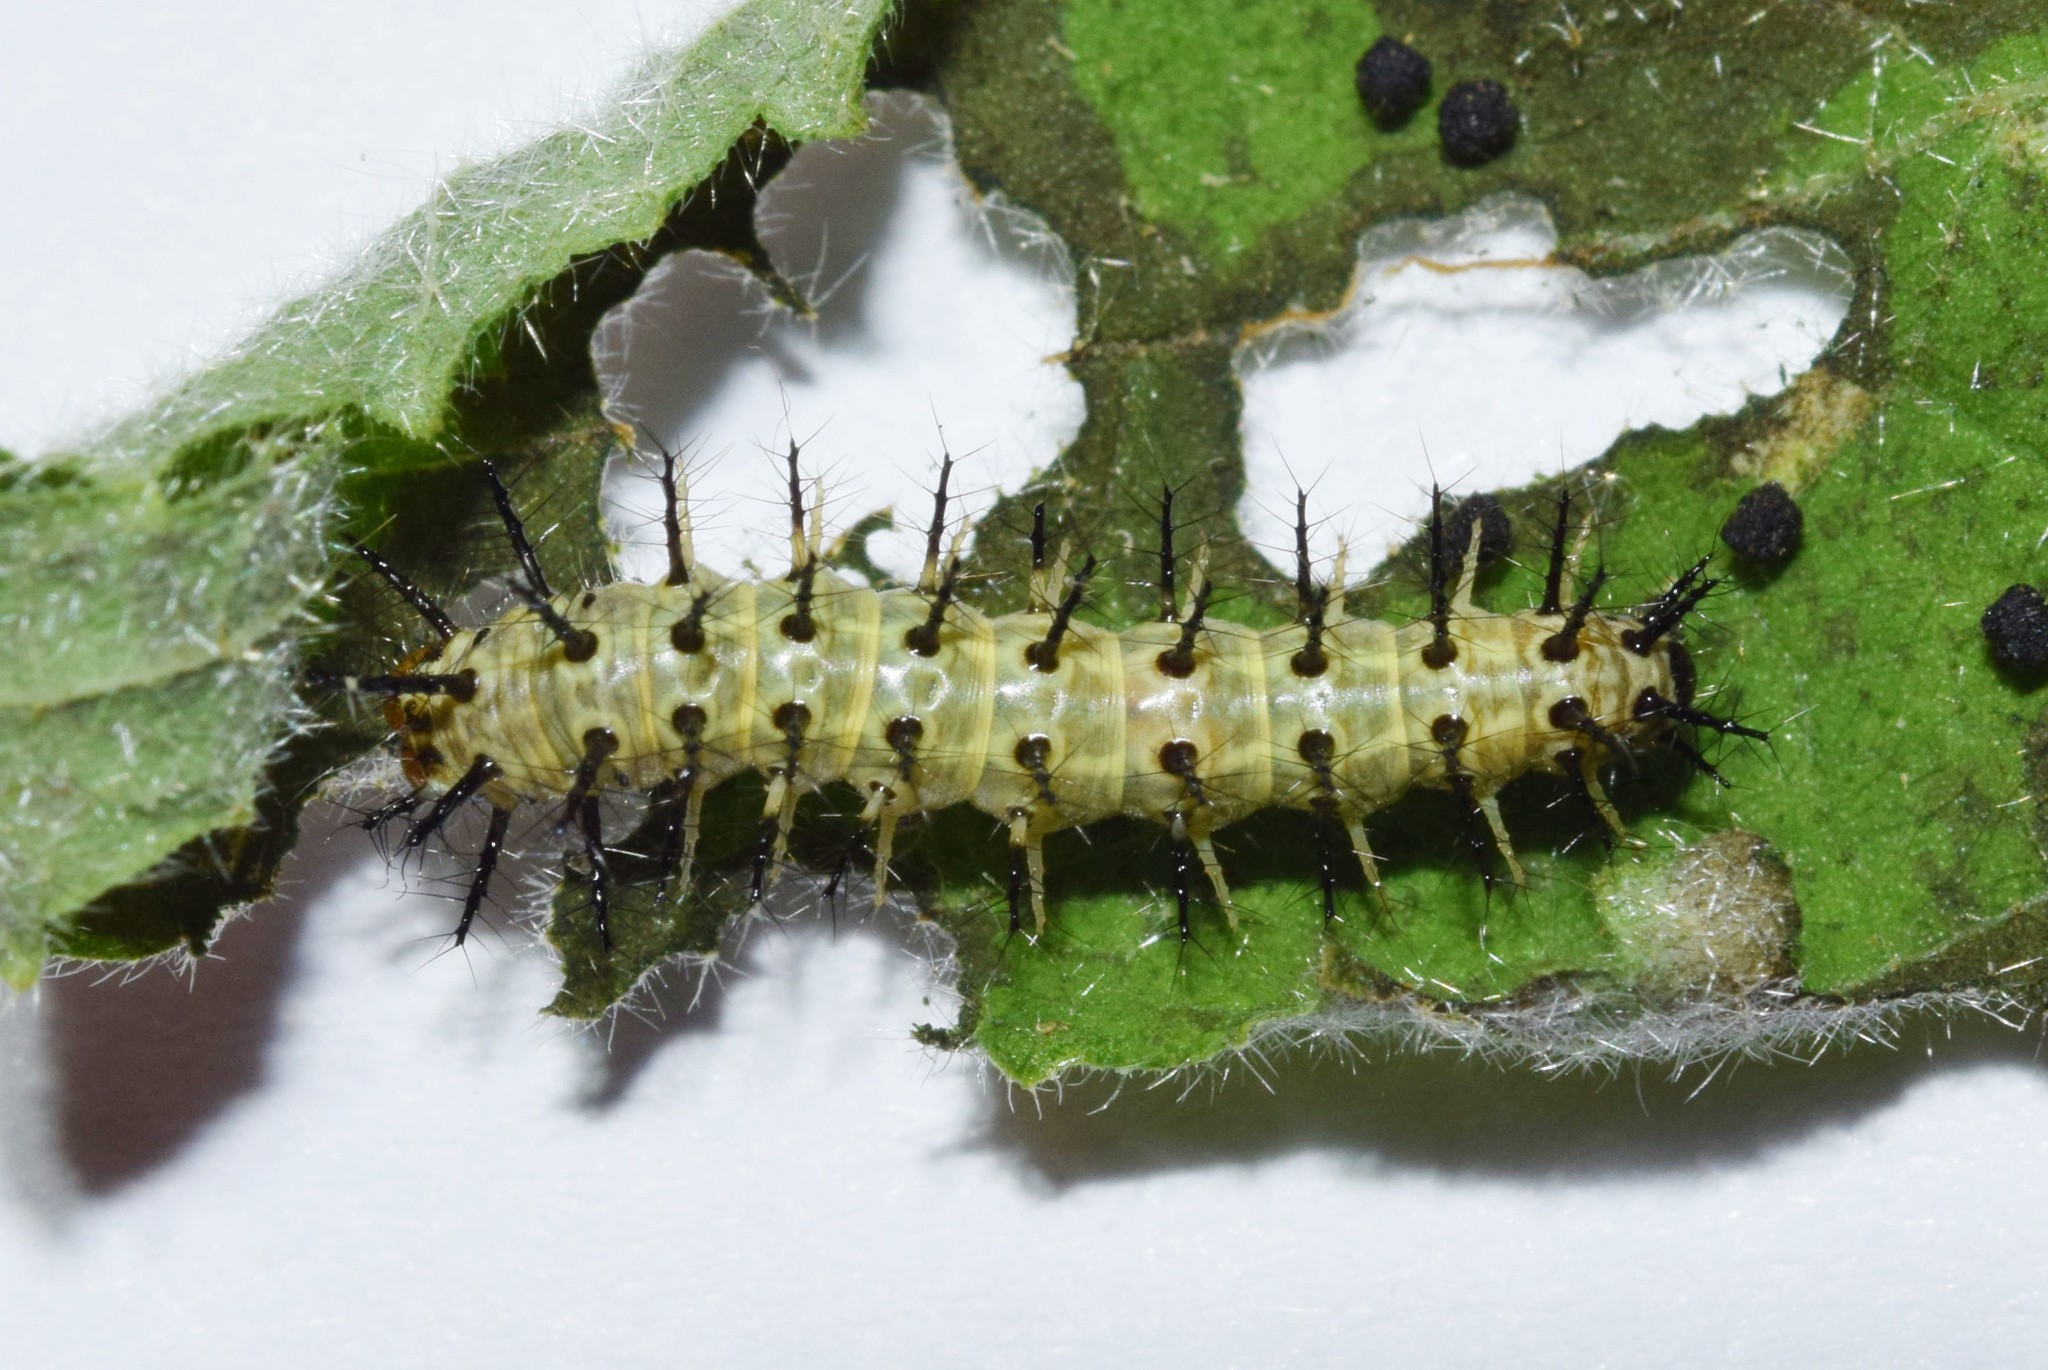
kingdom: Animalia
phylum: Arthropoda
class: Insecta
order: Lepidoptera
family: Nymphalidae
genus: Acraea
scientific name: Acraea Telchinia serena
